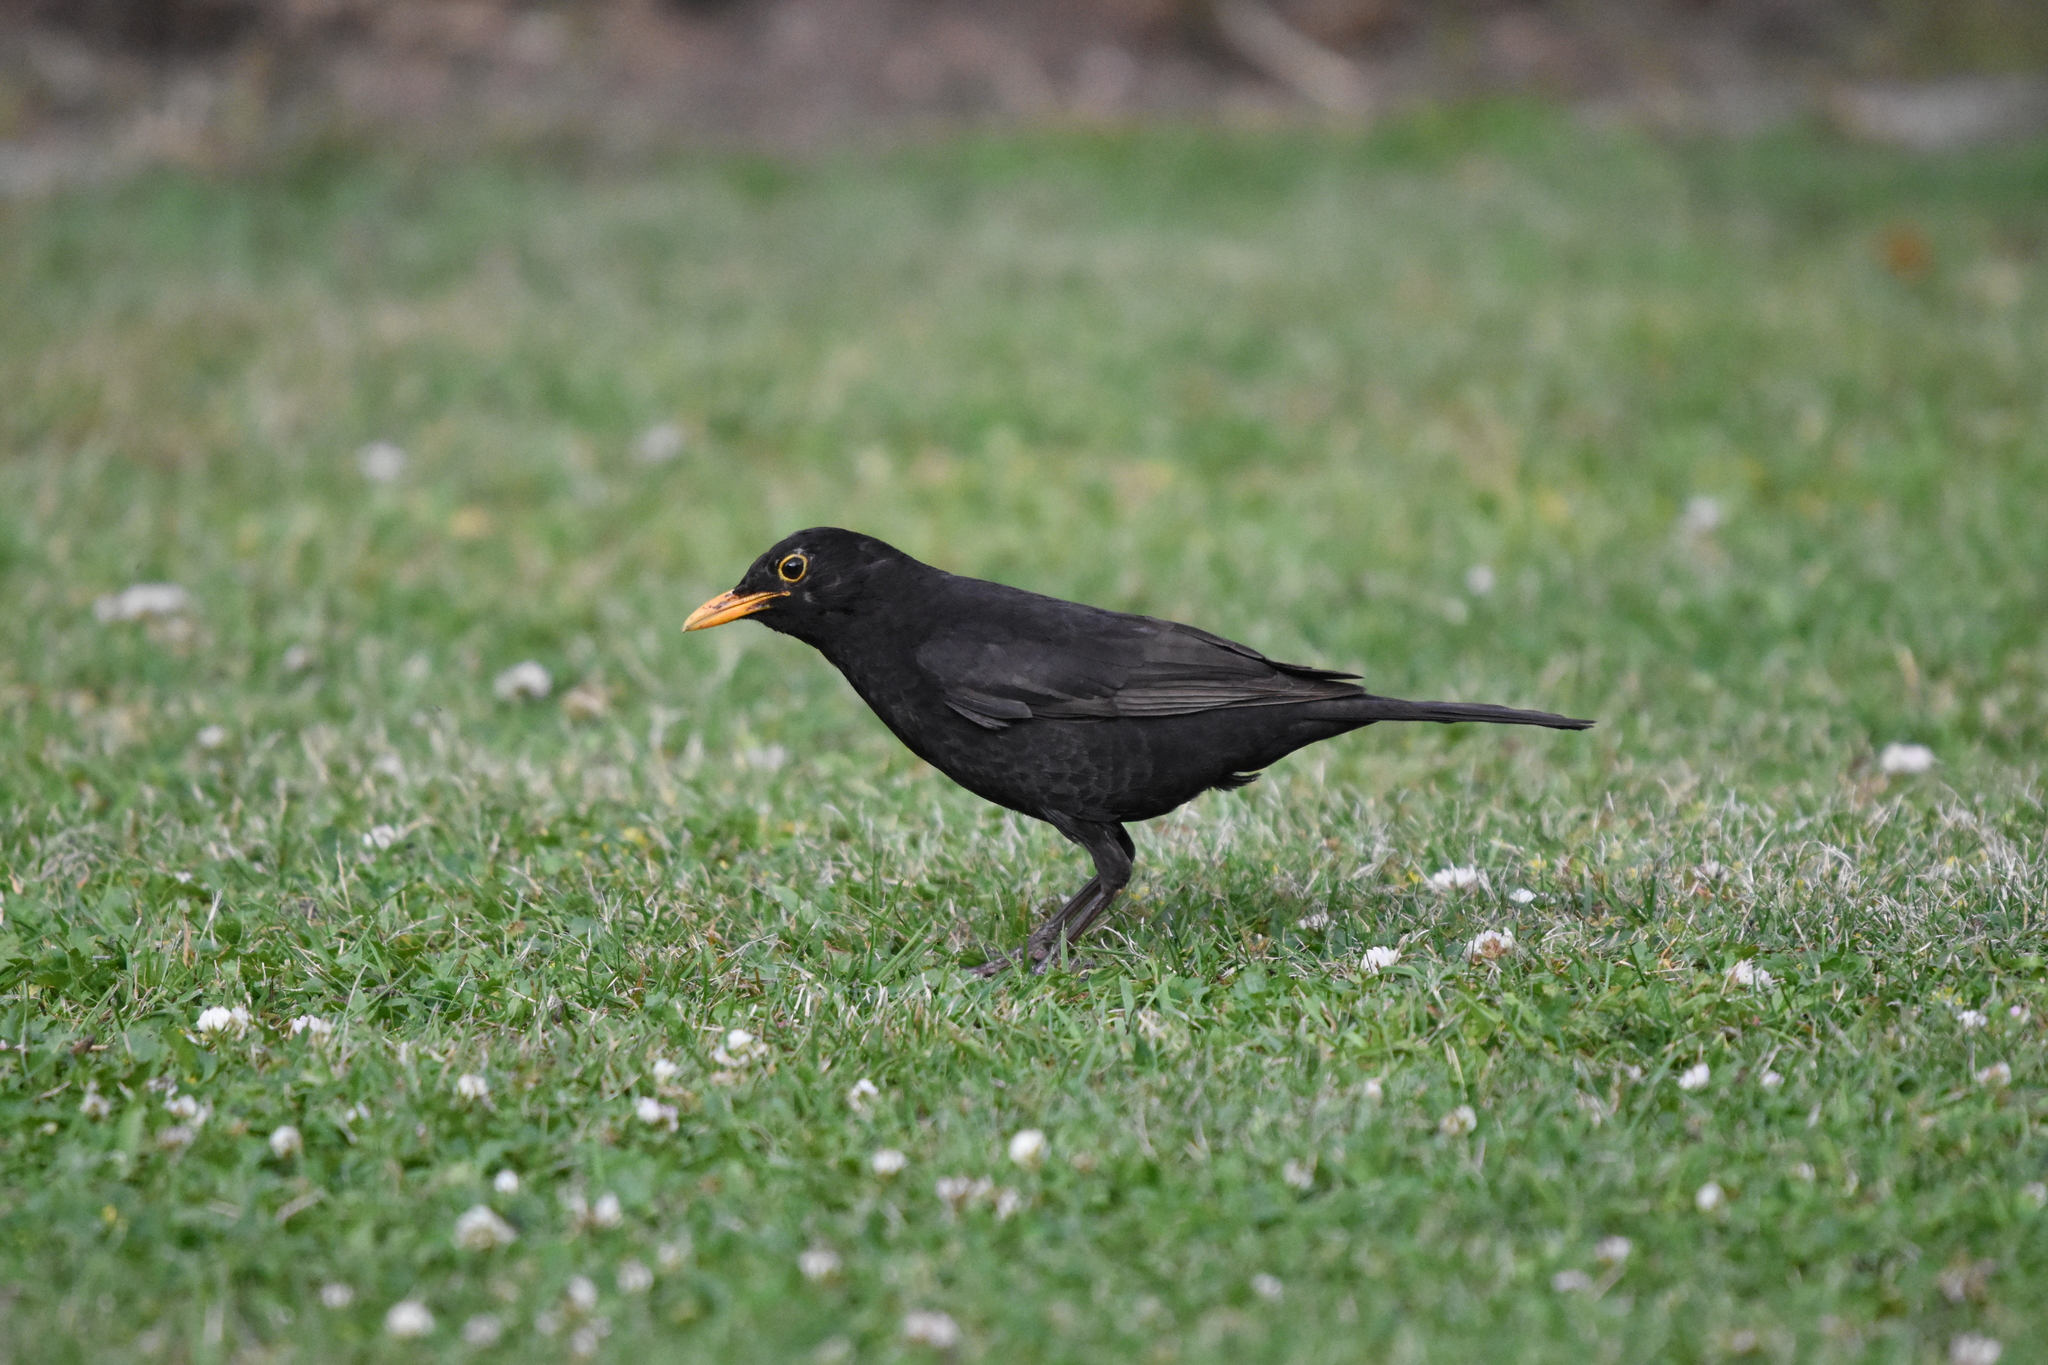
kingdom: Animalia
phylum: Chordata
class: Aves
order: Passeriformes
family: Turdidae
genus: Turdus
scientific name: Turdus merula
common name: Common blackbird
